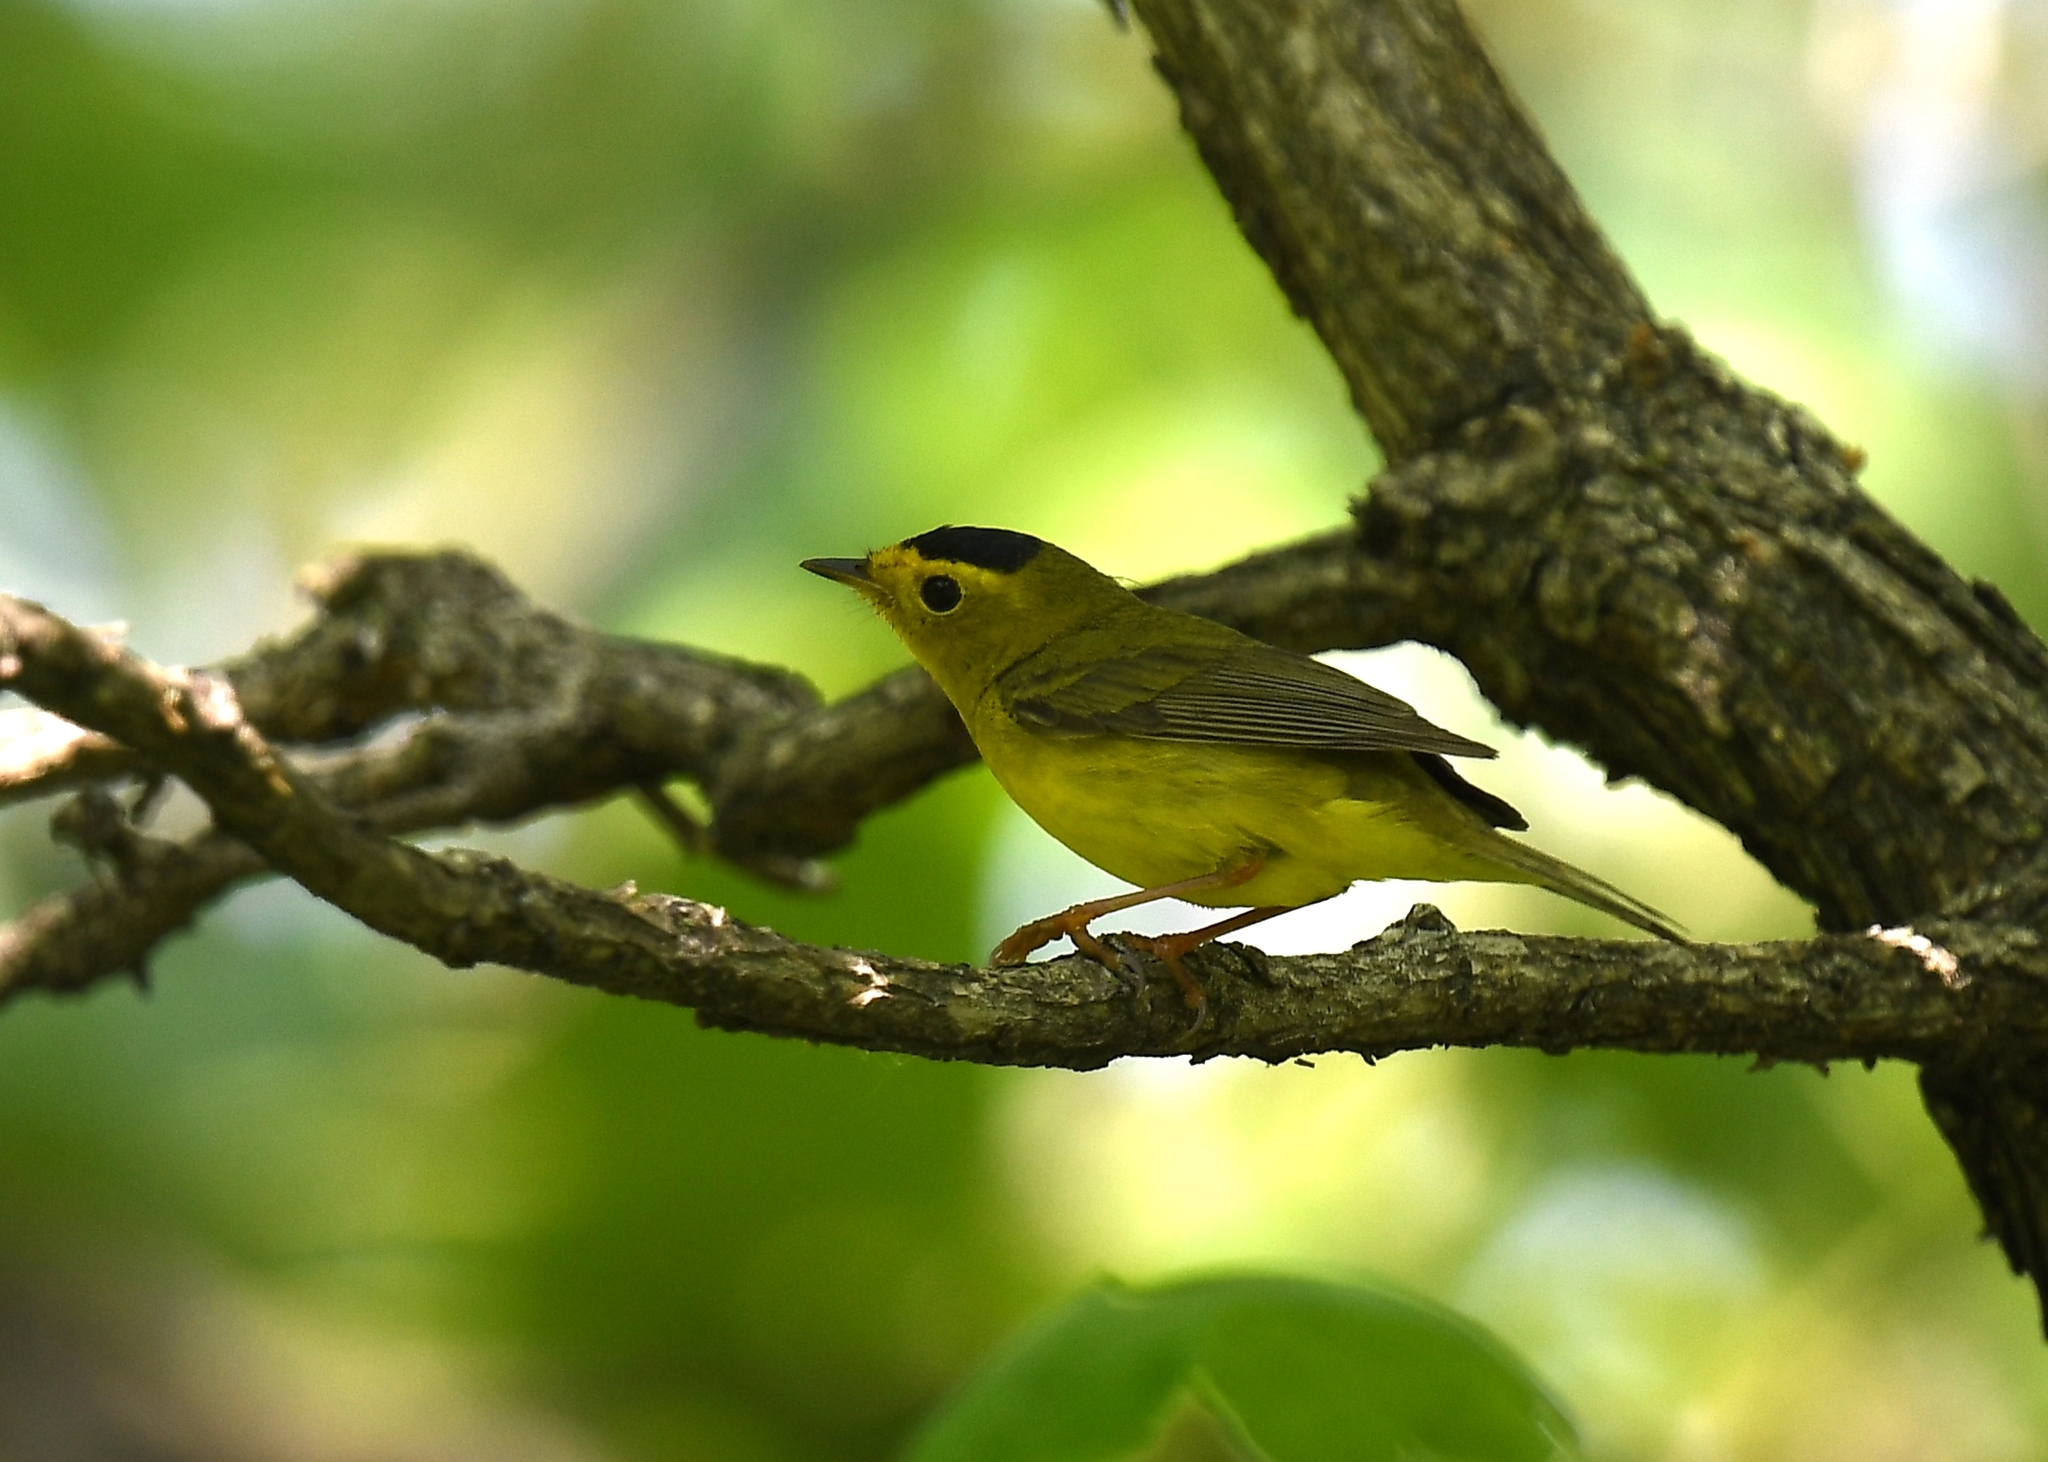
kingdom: Animalia
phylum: Chordata
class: Aves
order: Passeriformes
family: Parulidae
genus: Cardellina
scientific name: Cardellina pusilla
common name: Wilson's warbler
